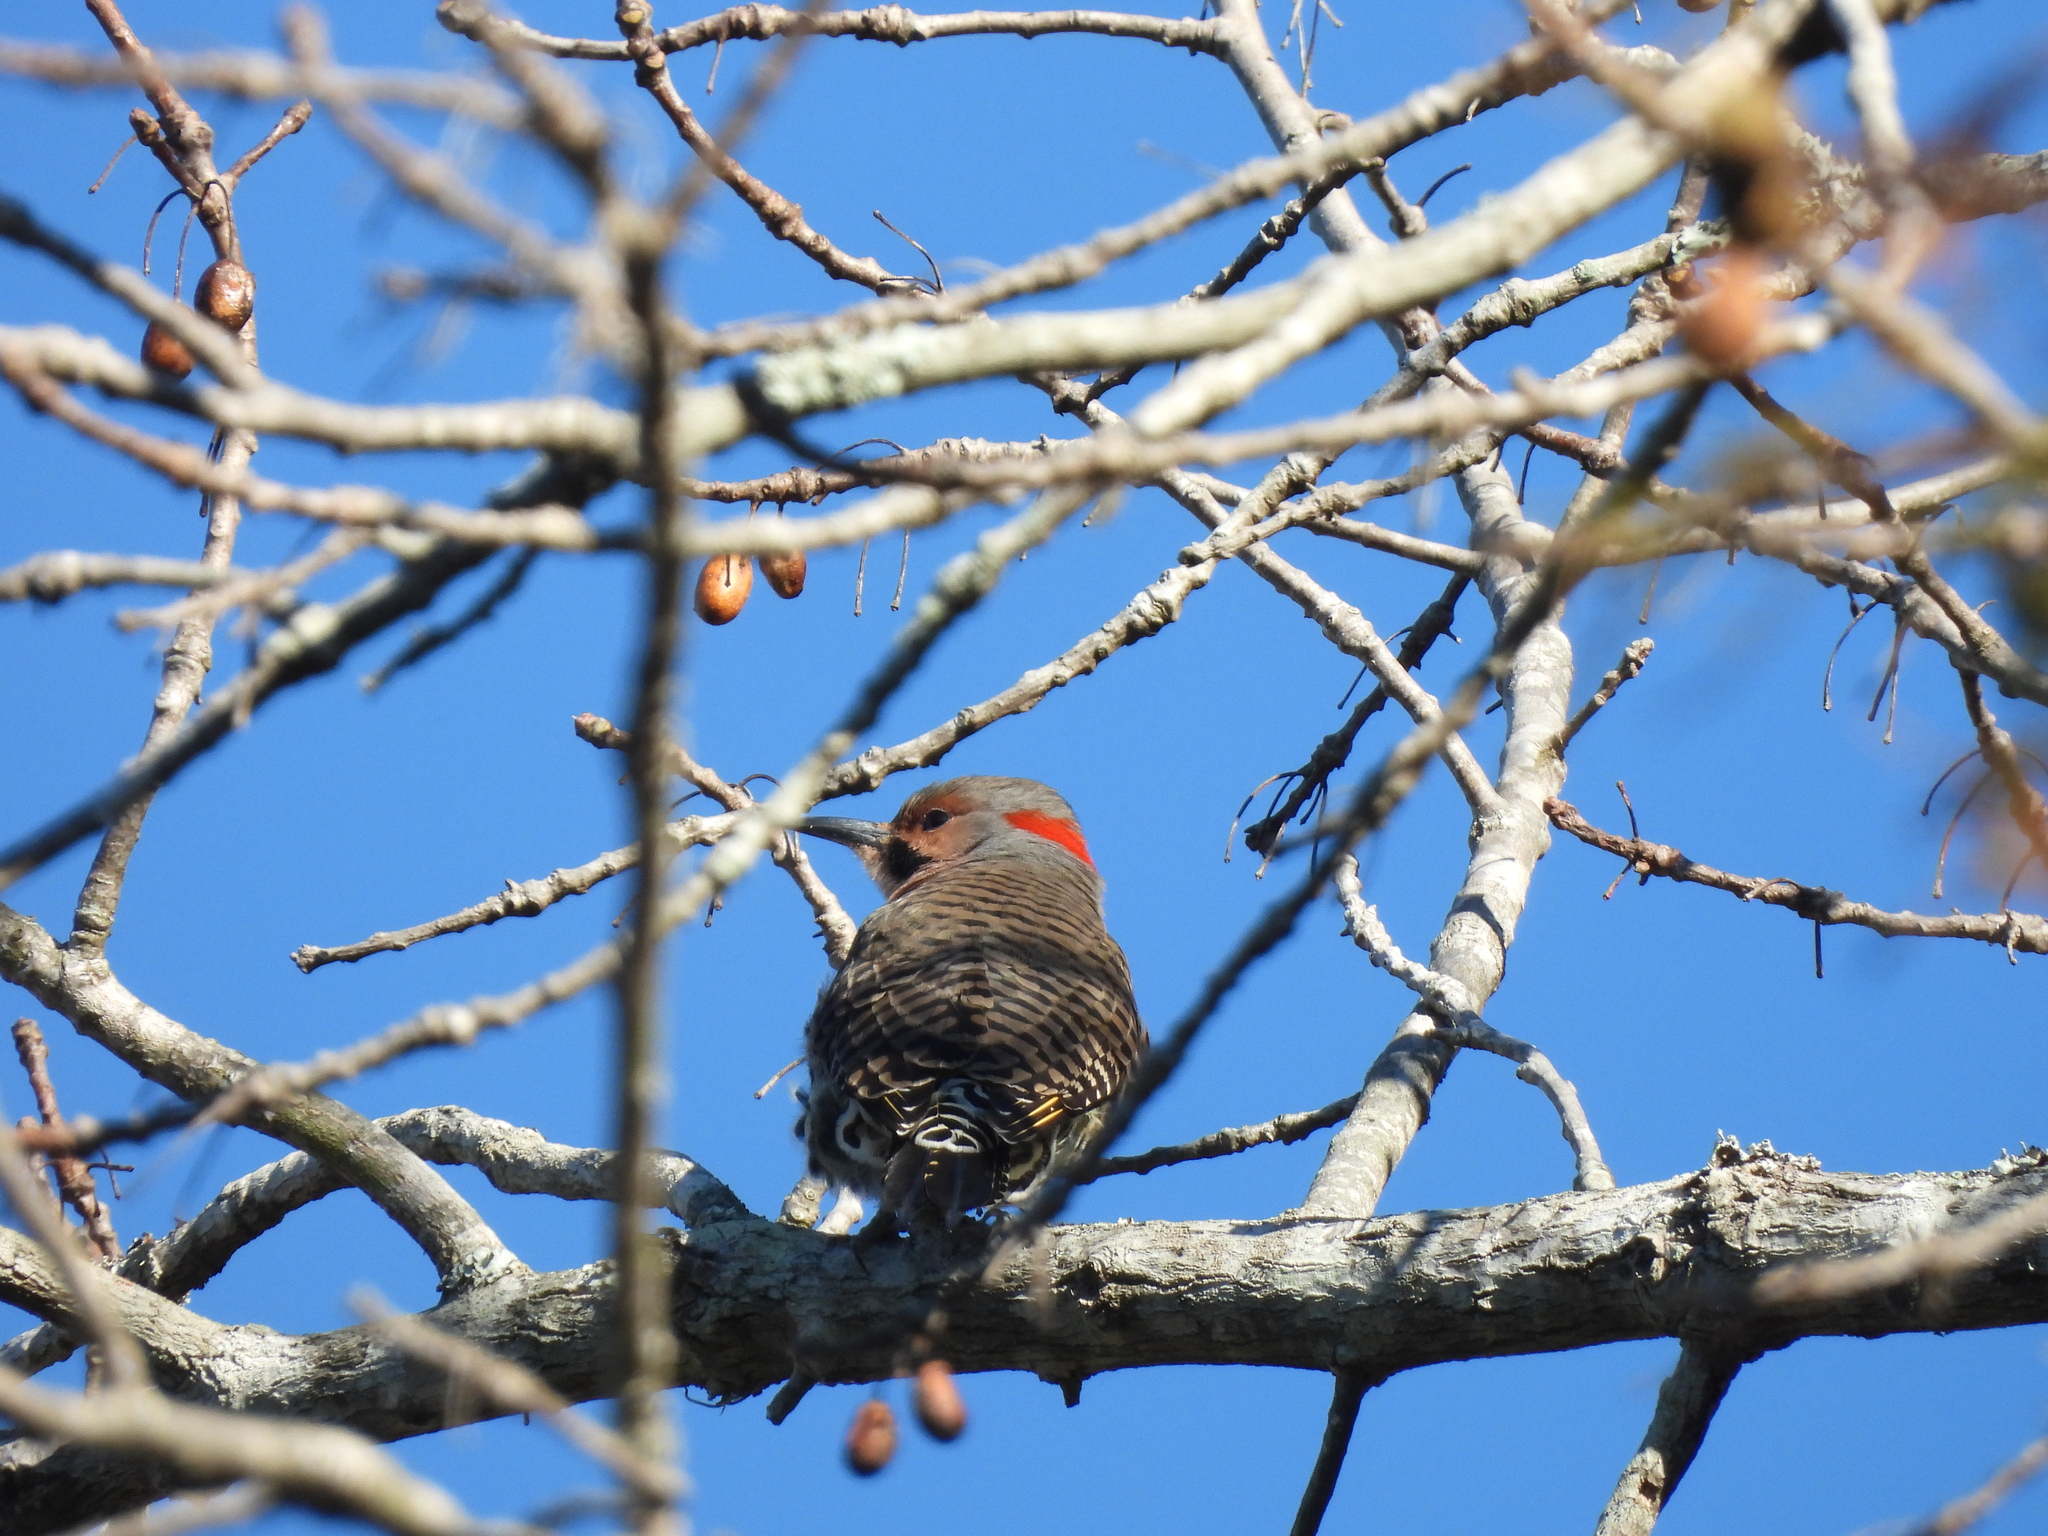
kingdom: Animalia
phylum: Chordata
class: Aves
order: Piciformes
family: Picidae
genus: Colaptes
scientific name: Colaptes auratus
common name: Northern flicker
